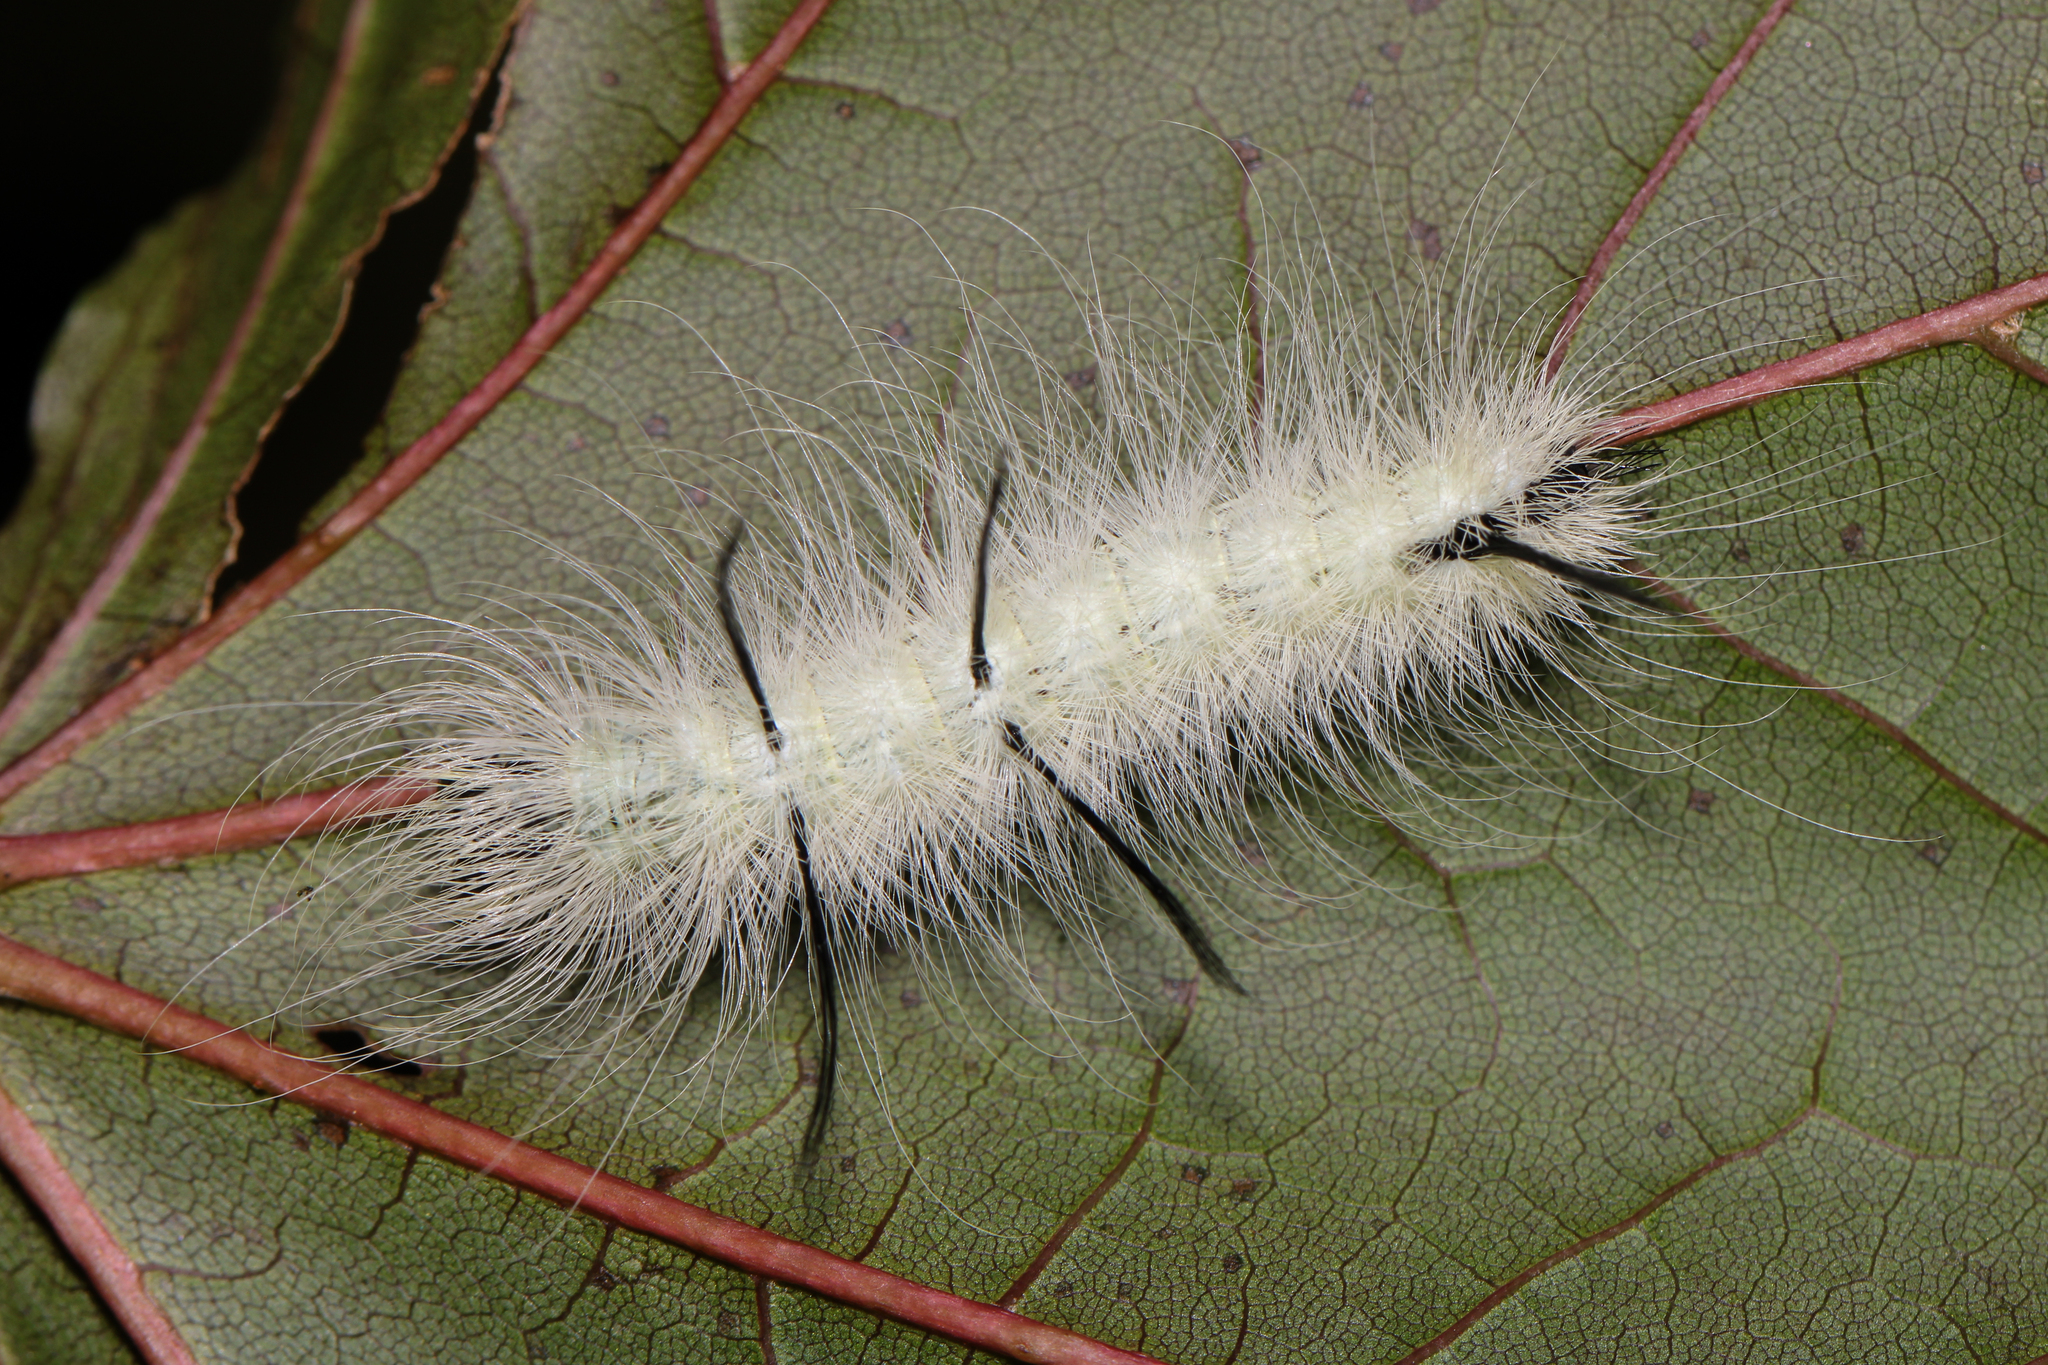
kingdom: Animalia
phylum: Arthropoda
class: Insecta
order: Lepidoptera
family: Noctuidae
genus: Acronicta
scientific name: Acronicta americana
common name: American dagger
